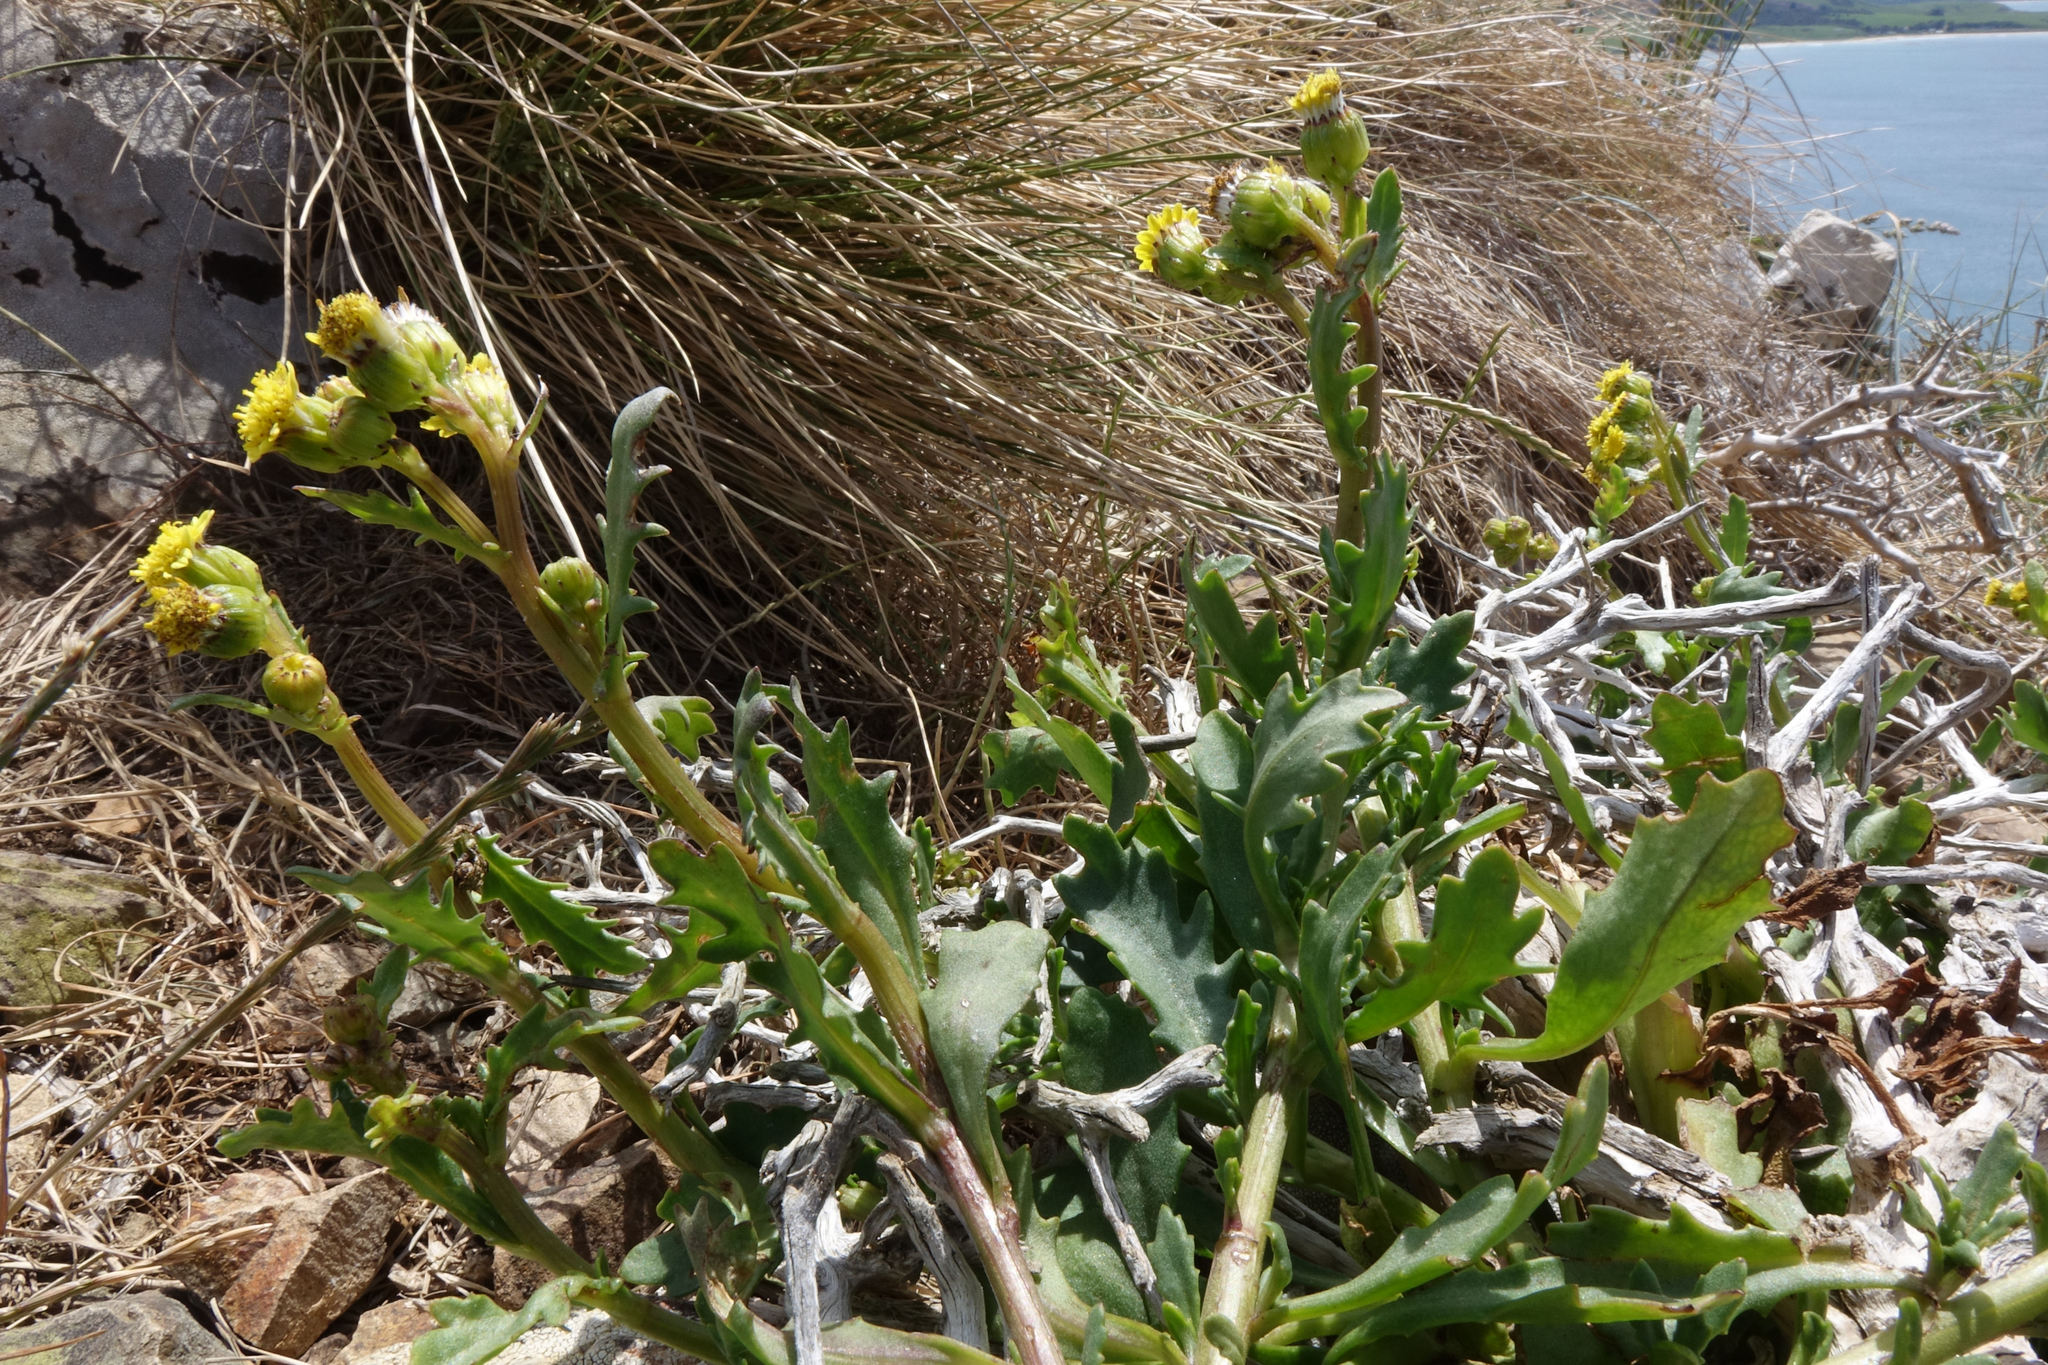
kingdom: Plantae
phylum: Tracheophyta
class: Magnoliopsida
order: Asterales
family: Asteraceae
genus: Senecio
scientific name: Senecio matatini
